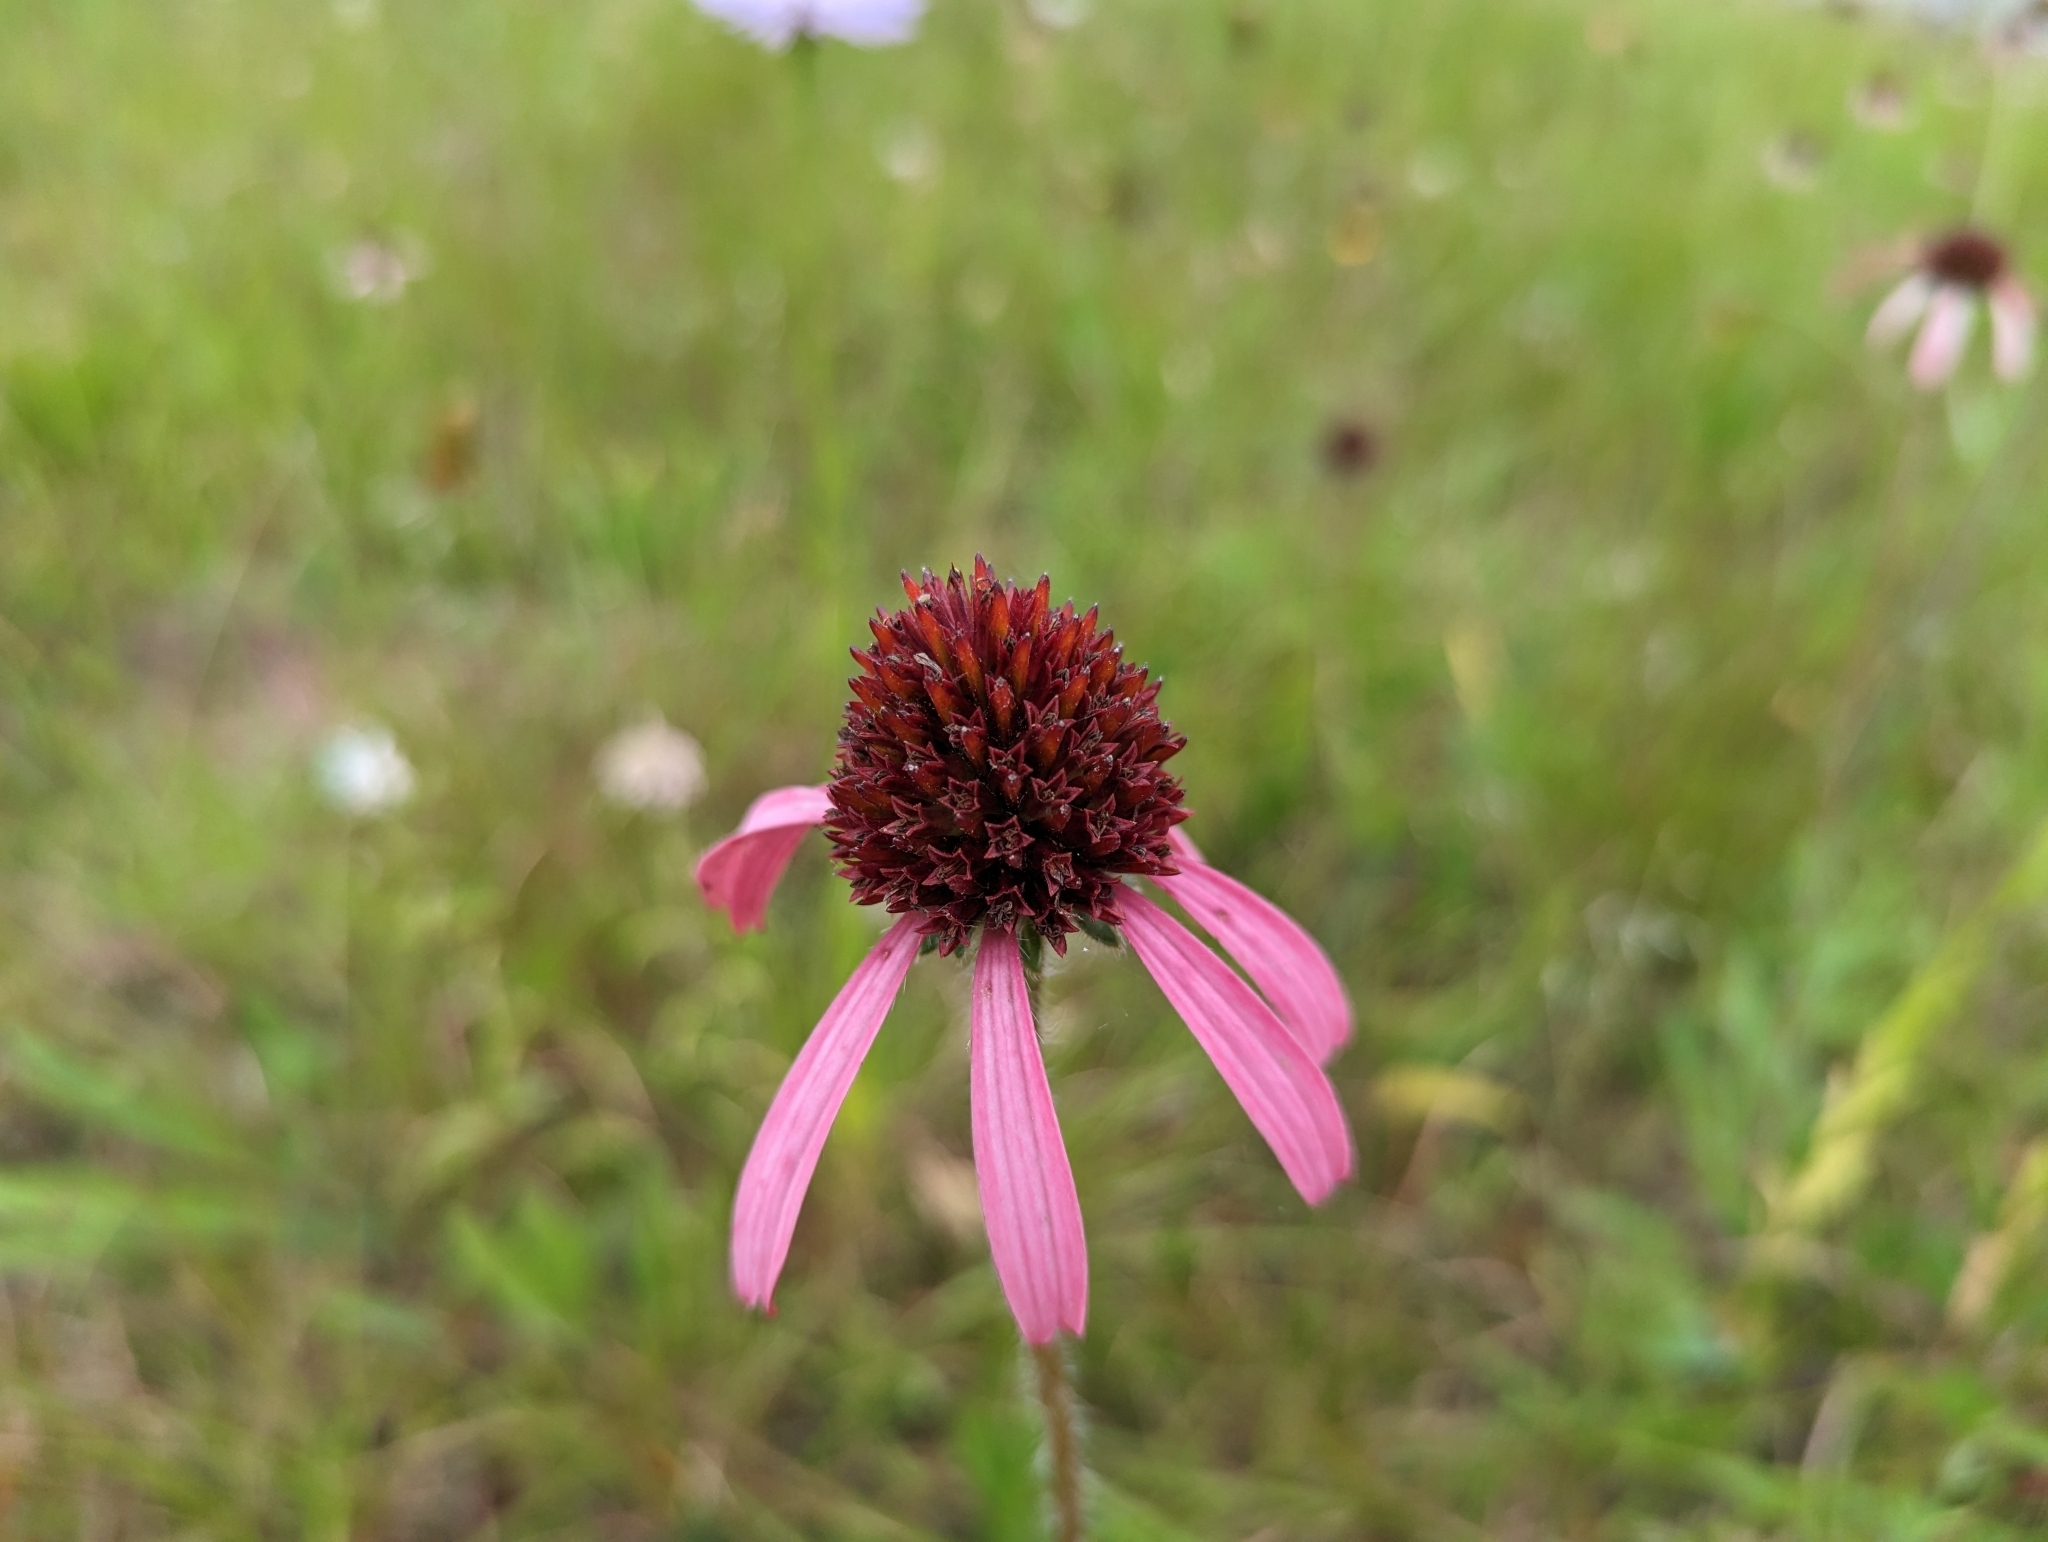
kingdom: Plantae
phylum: Tracheophyta
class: Magnoliopsida
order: Asterales
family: Asteraceae
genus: Echinacea
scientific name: Echinacea angustifolia
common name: Black-sampson echinacea
